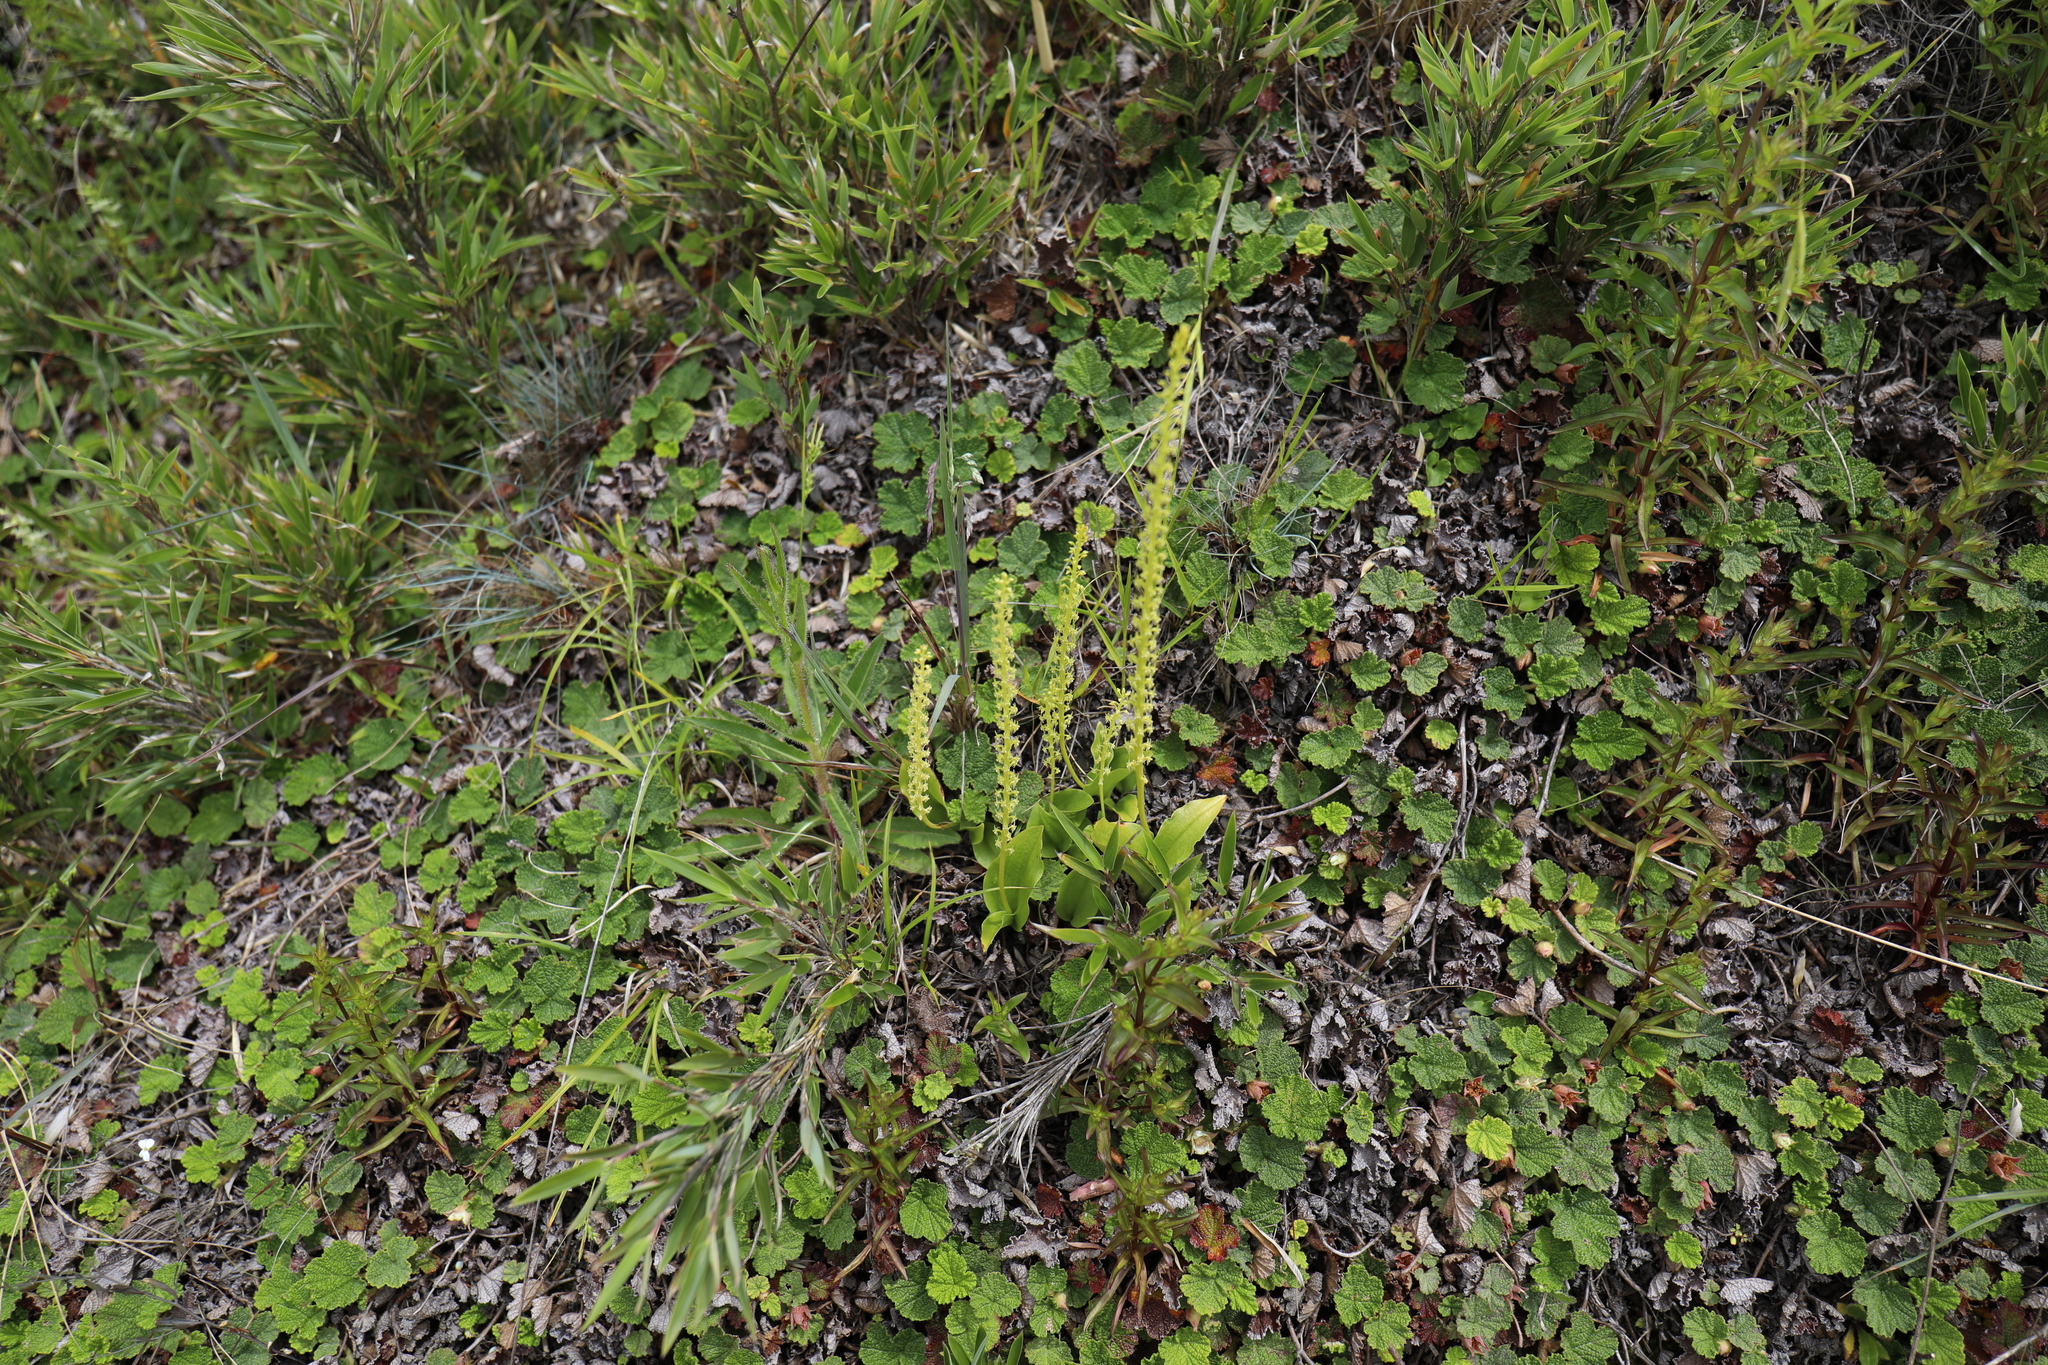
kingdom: Plantae
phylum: Tracheophyta
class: Liliopsida
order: Asparagales
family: Orchidaceae
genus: Malaxis
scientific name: Malaxis monophyllos
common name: White adder's-mouth
